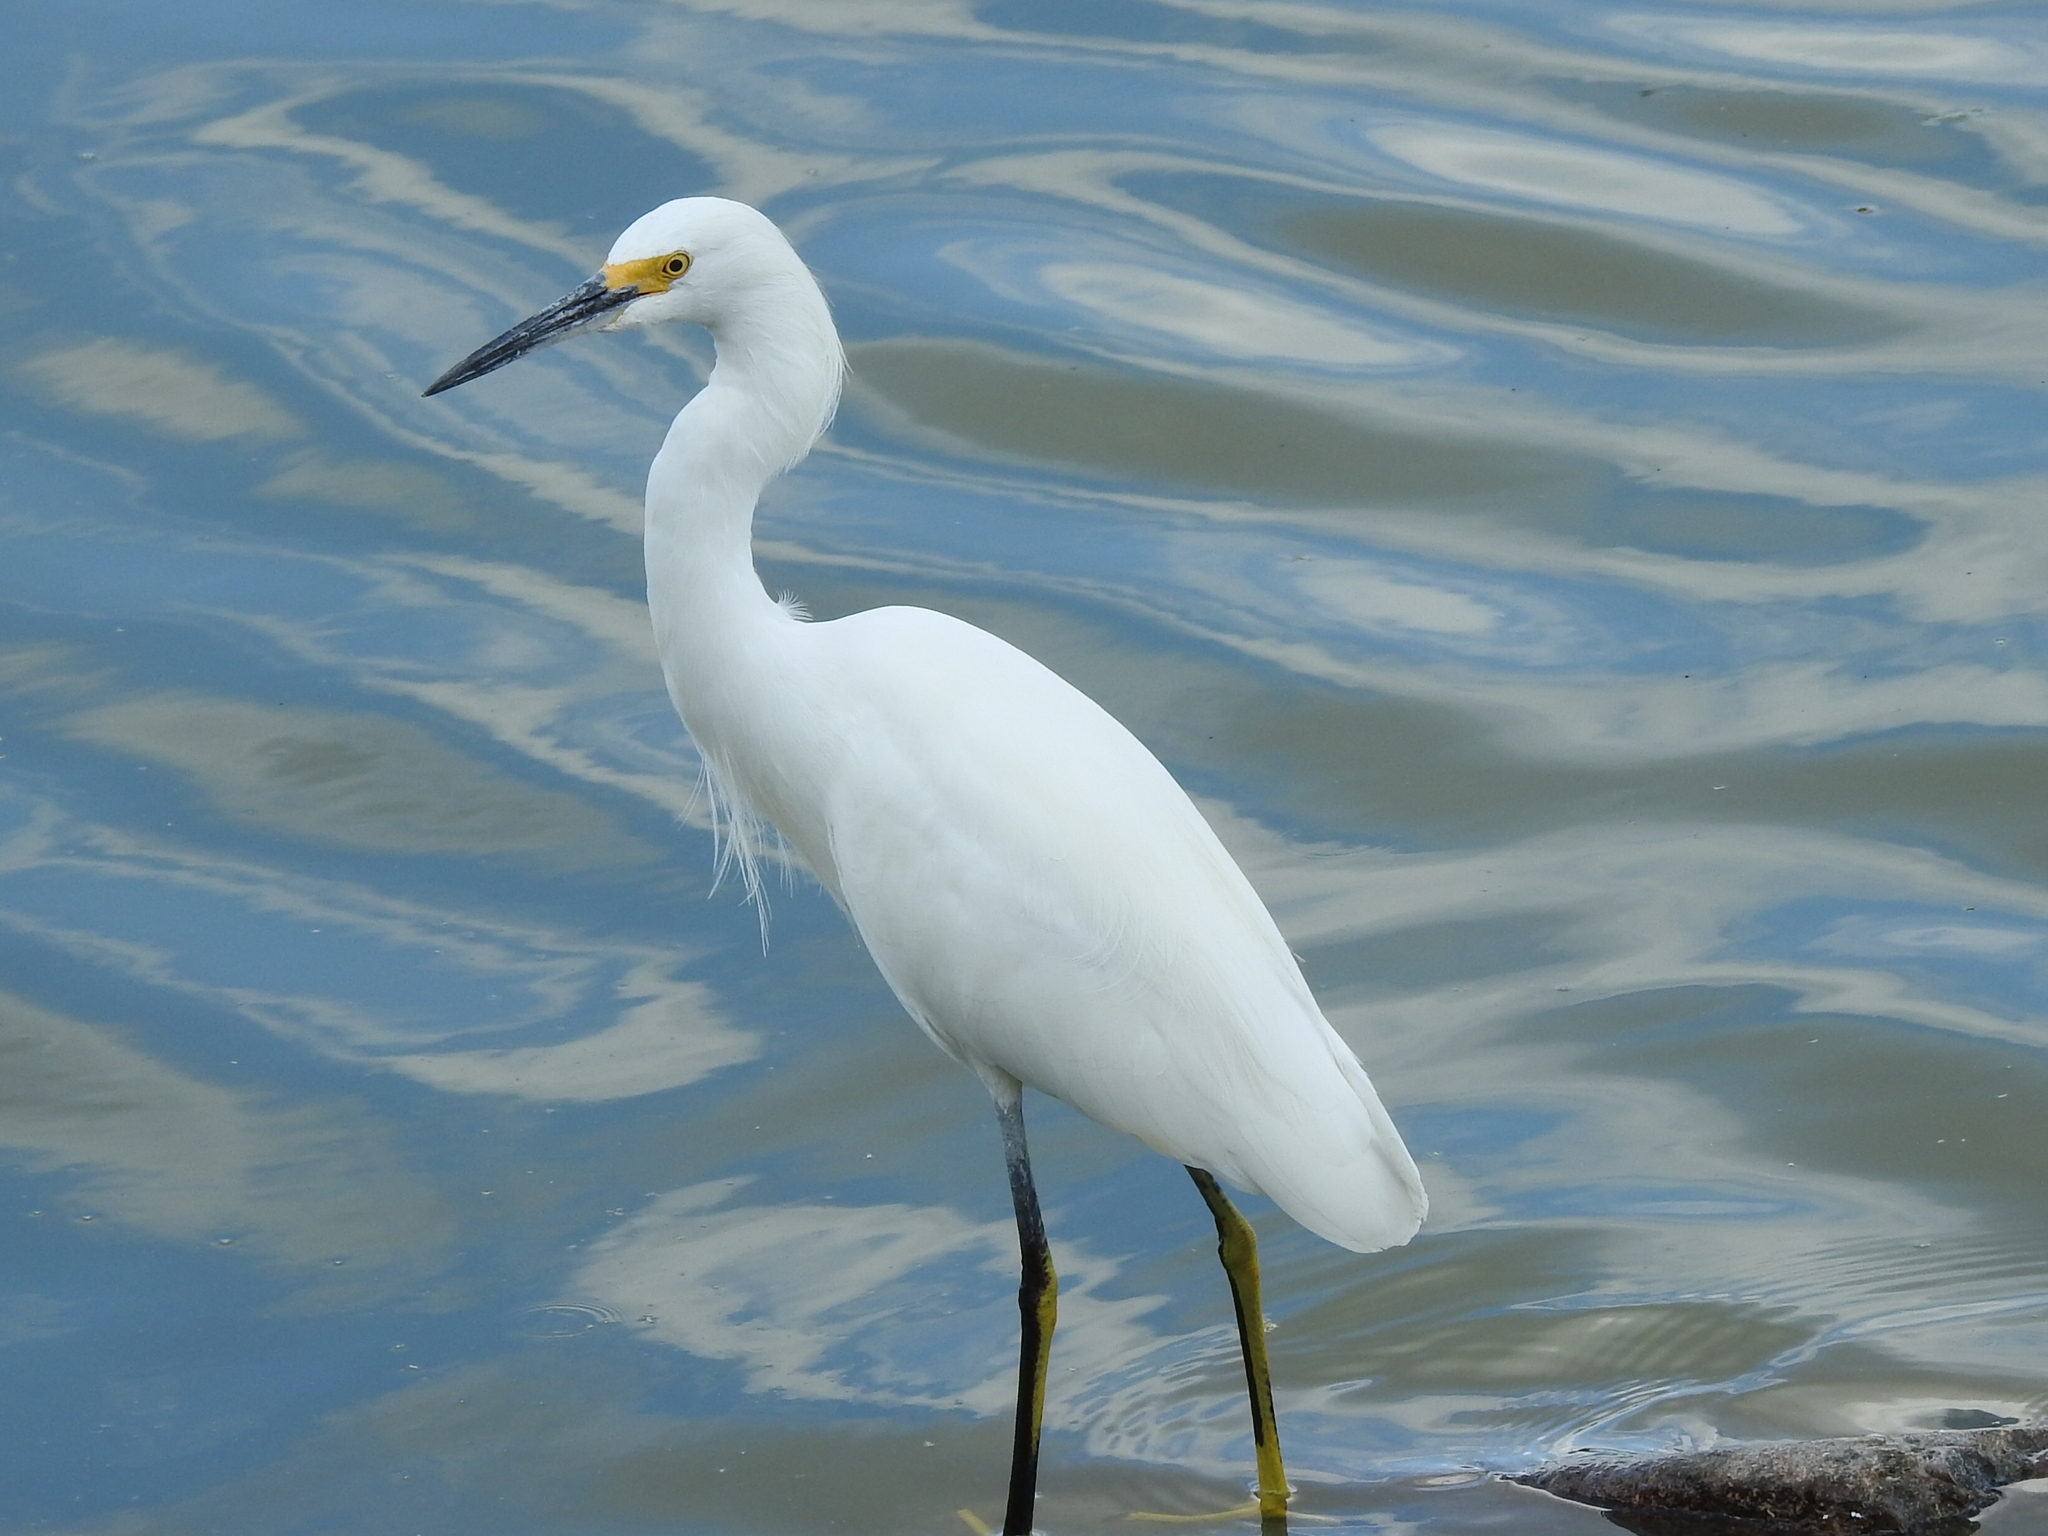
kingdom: Animalia
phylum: Chordata
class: Aves
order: Pelecaniformes
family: Ardeidae
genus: Egretta
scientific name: Egretta thula
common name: Snowy egret
